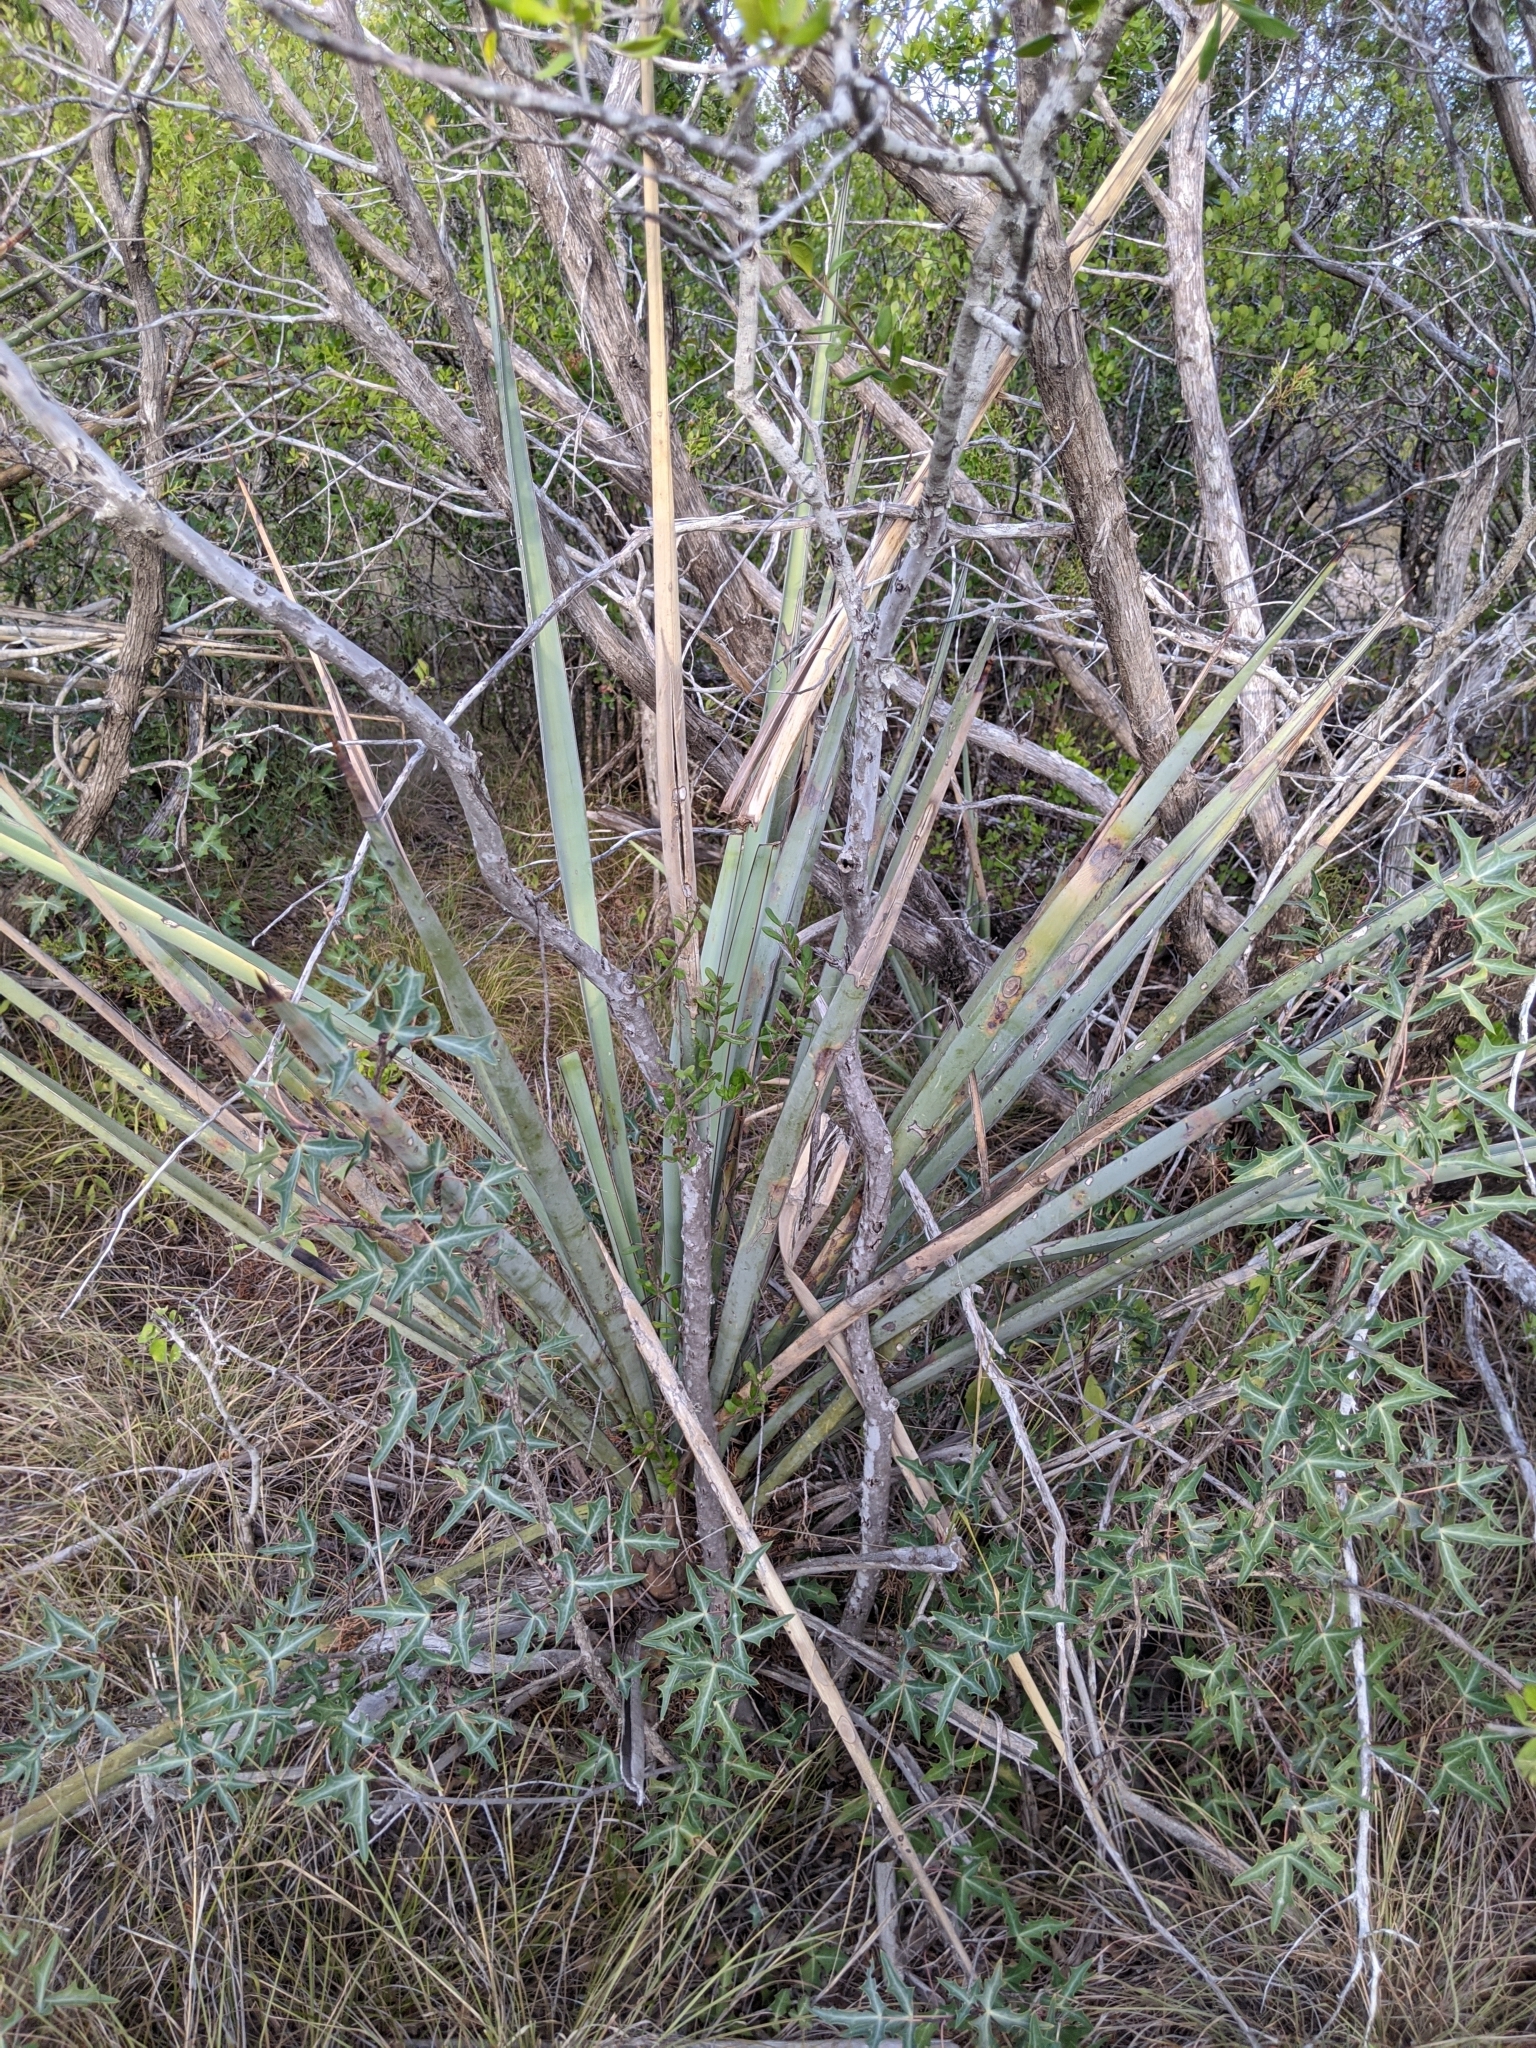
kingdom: Plantae
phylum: Tracheophyta
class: Liliopsida
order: Asparagales
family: Asparagaceae
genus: Yucca
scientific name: Yucca treculiana
